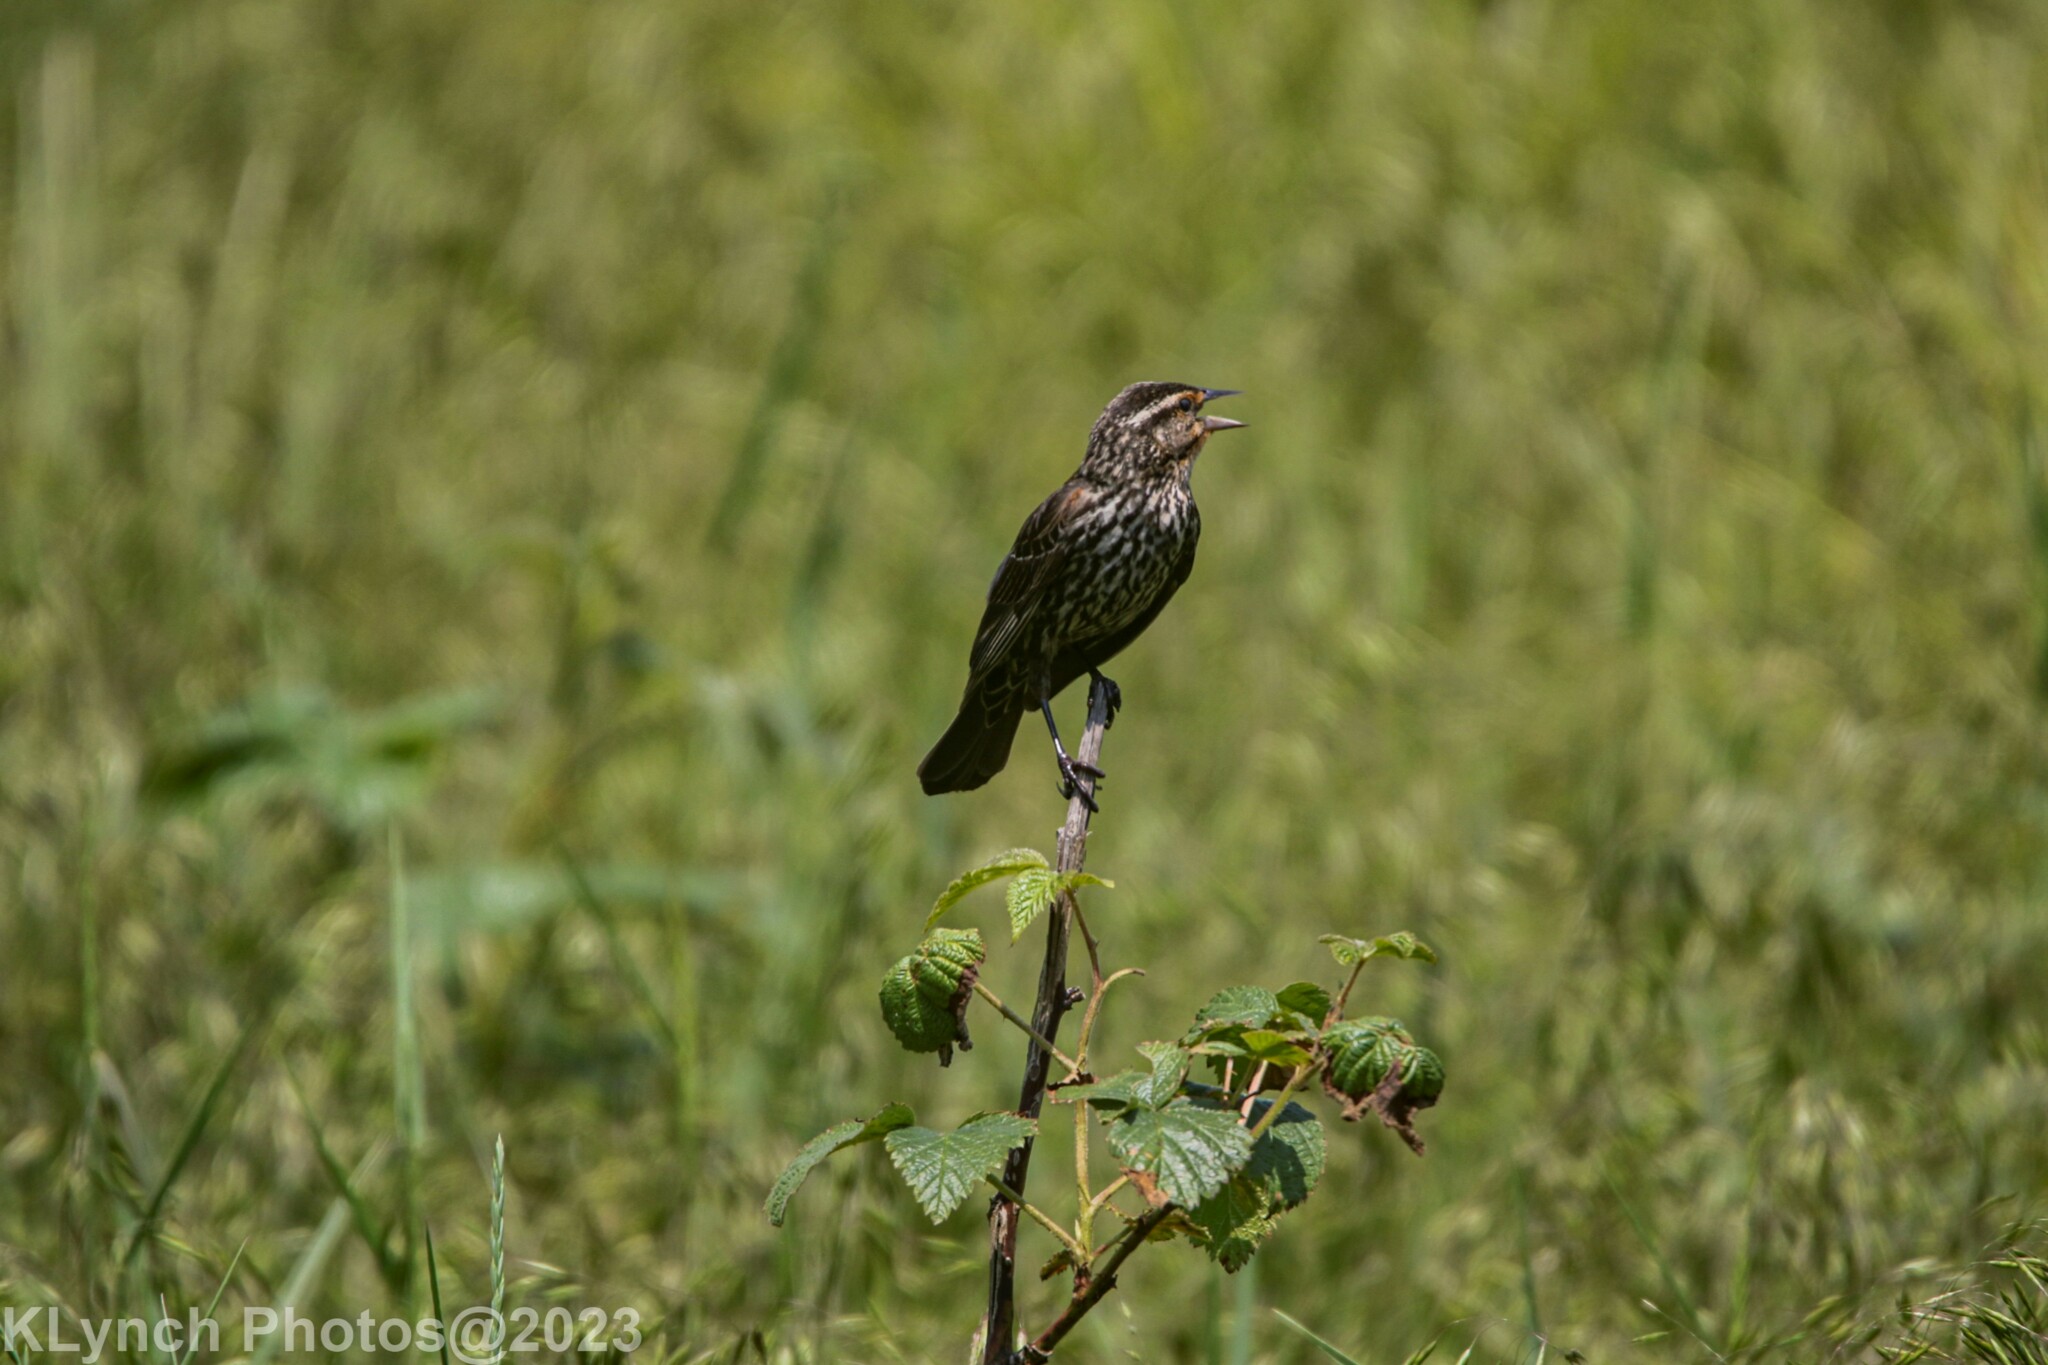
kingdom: Animalia
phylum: Chordata
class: Aves
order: Passeriformes
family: Icteridae
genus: Agelaius
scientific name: Agelaius phoeniceus
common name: Red-winged blackbird
